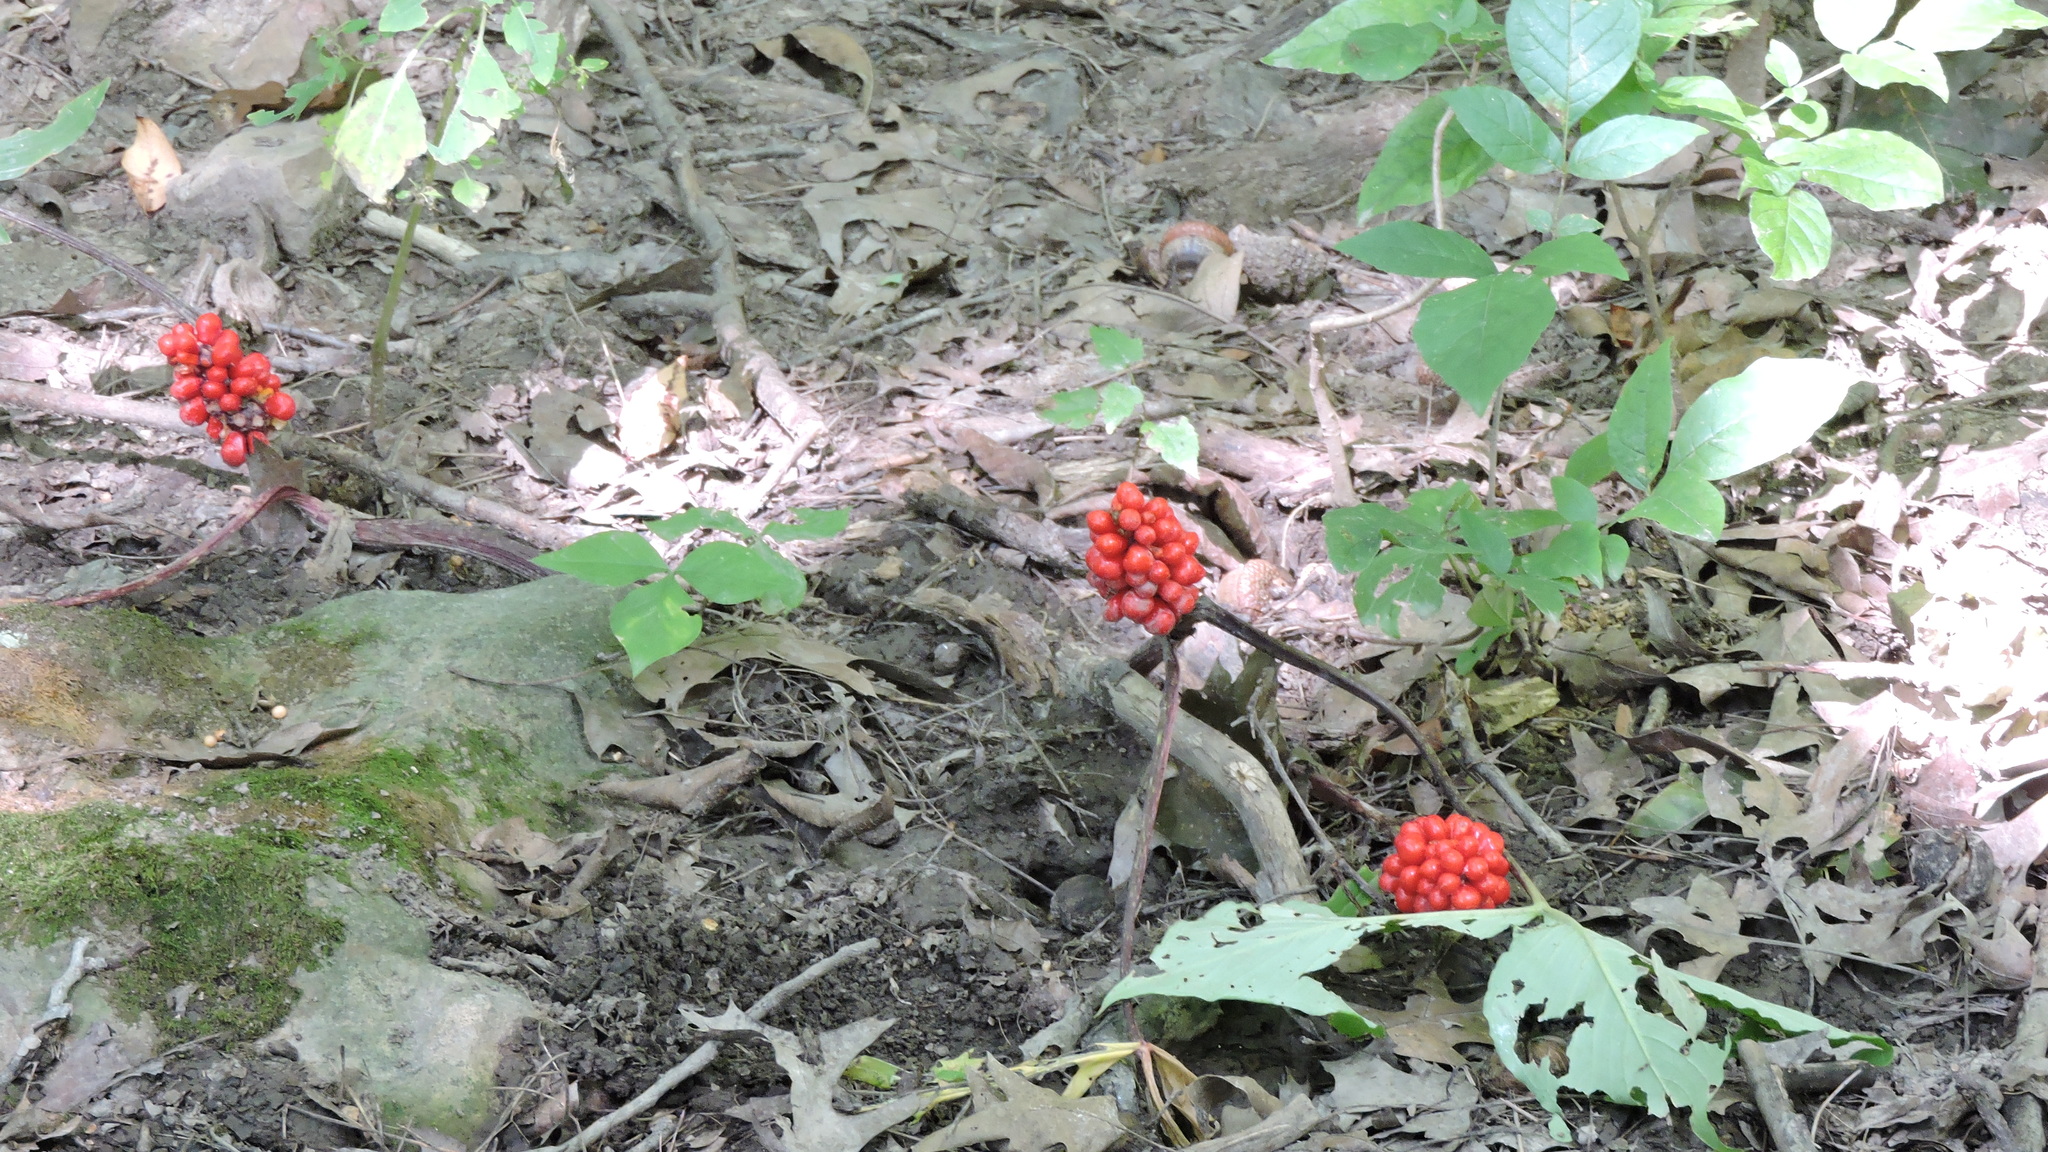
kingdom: Plantae
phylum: Tracheophyta
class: Liliopsida
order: Alismatales
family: Araceae
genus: Arisaema
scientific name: Arisaema triphyllum
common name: Jack-in-the-pulpit
